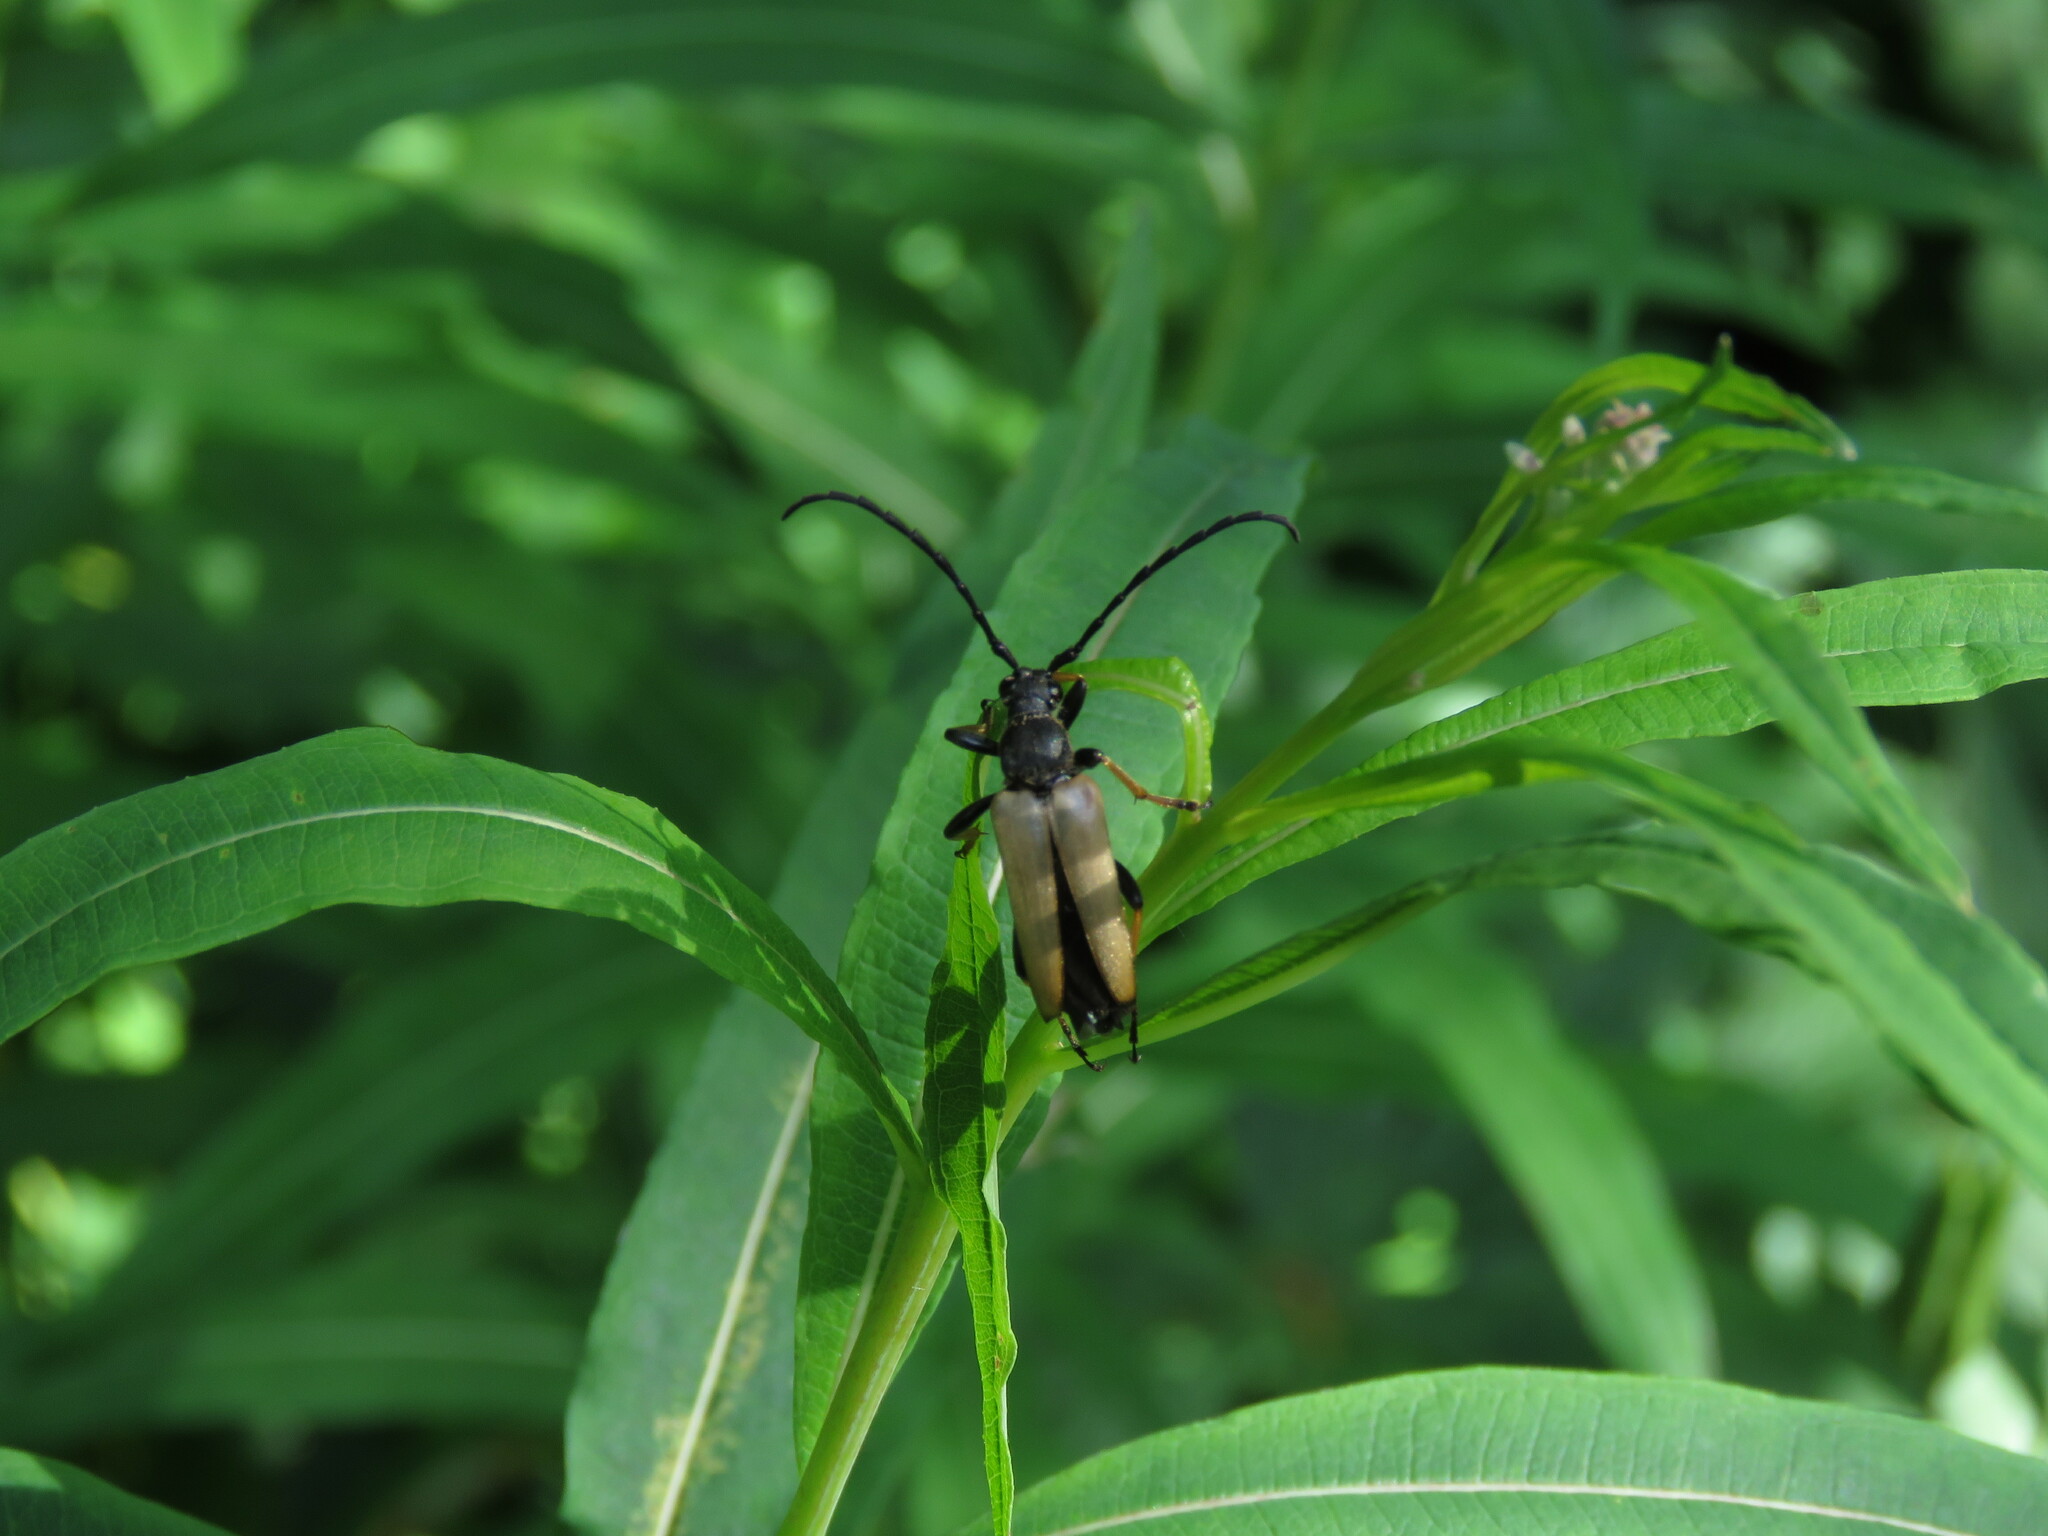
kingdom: Animalia
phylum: Arthropoda
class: Insecta
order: Coleoptera
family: Cerambycidae
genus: Stictoleptura
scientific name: Stictoleptura rubra
